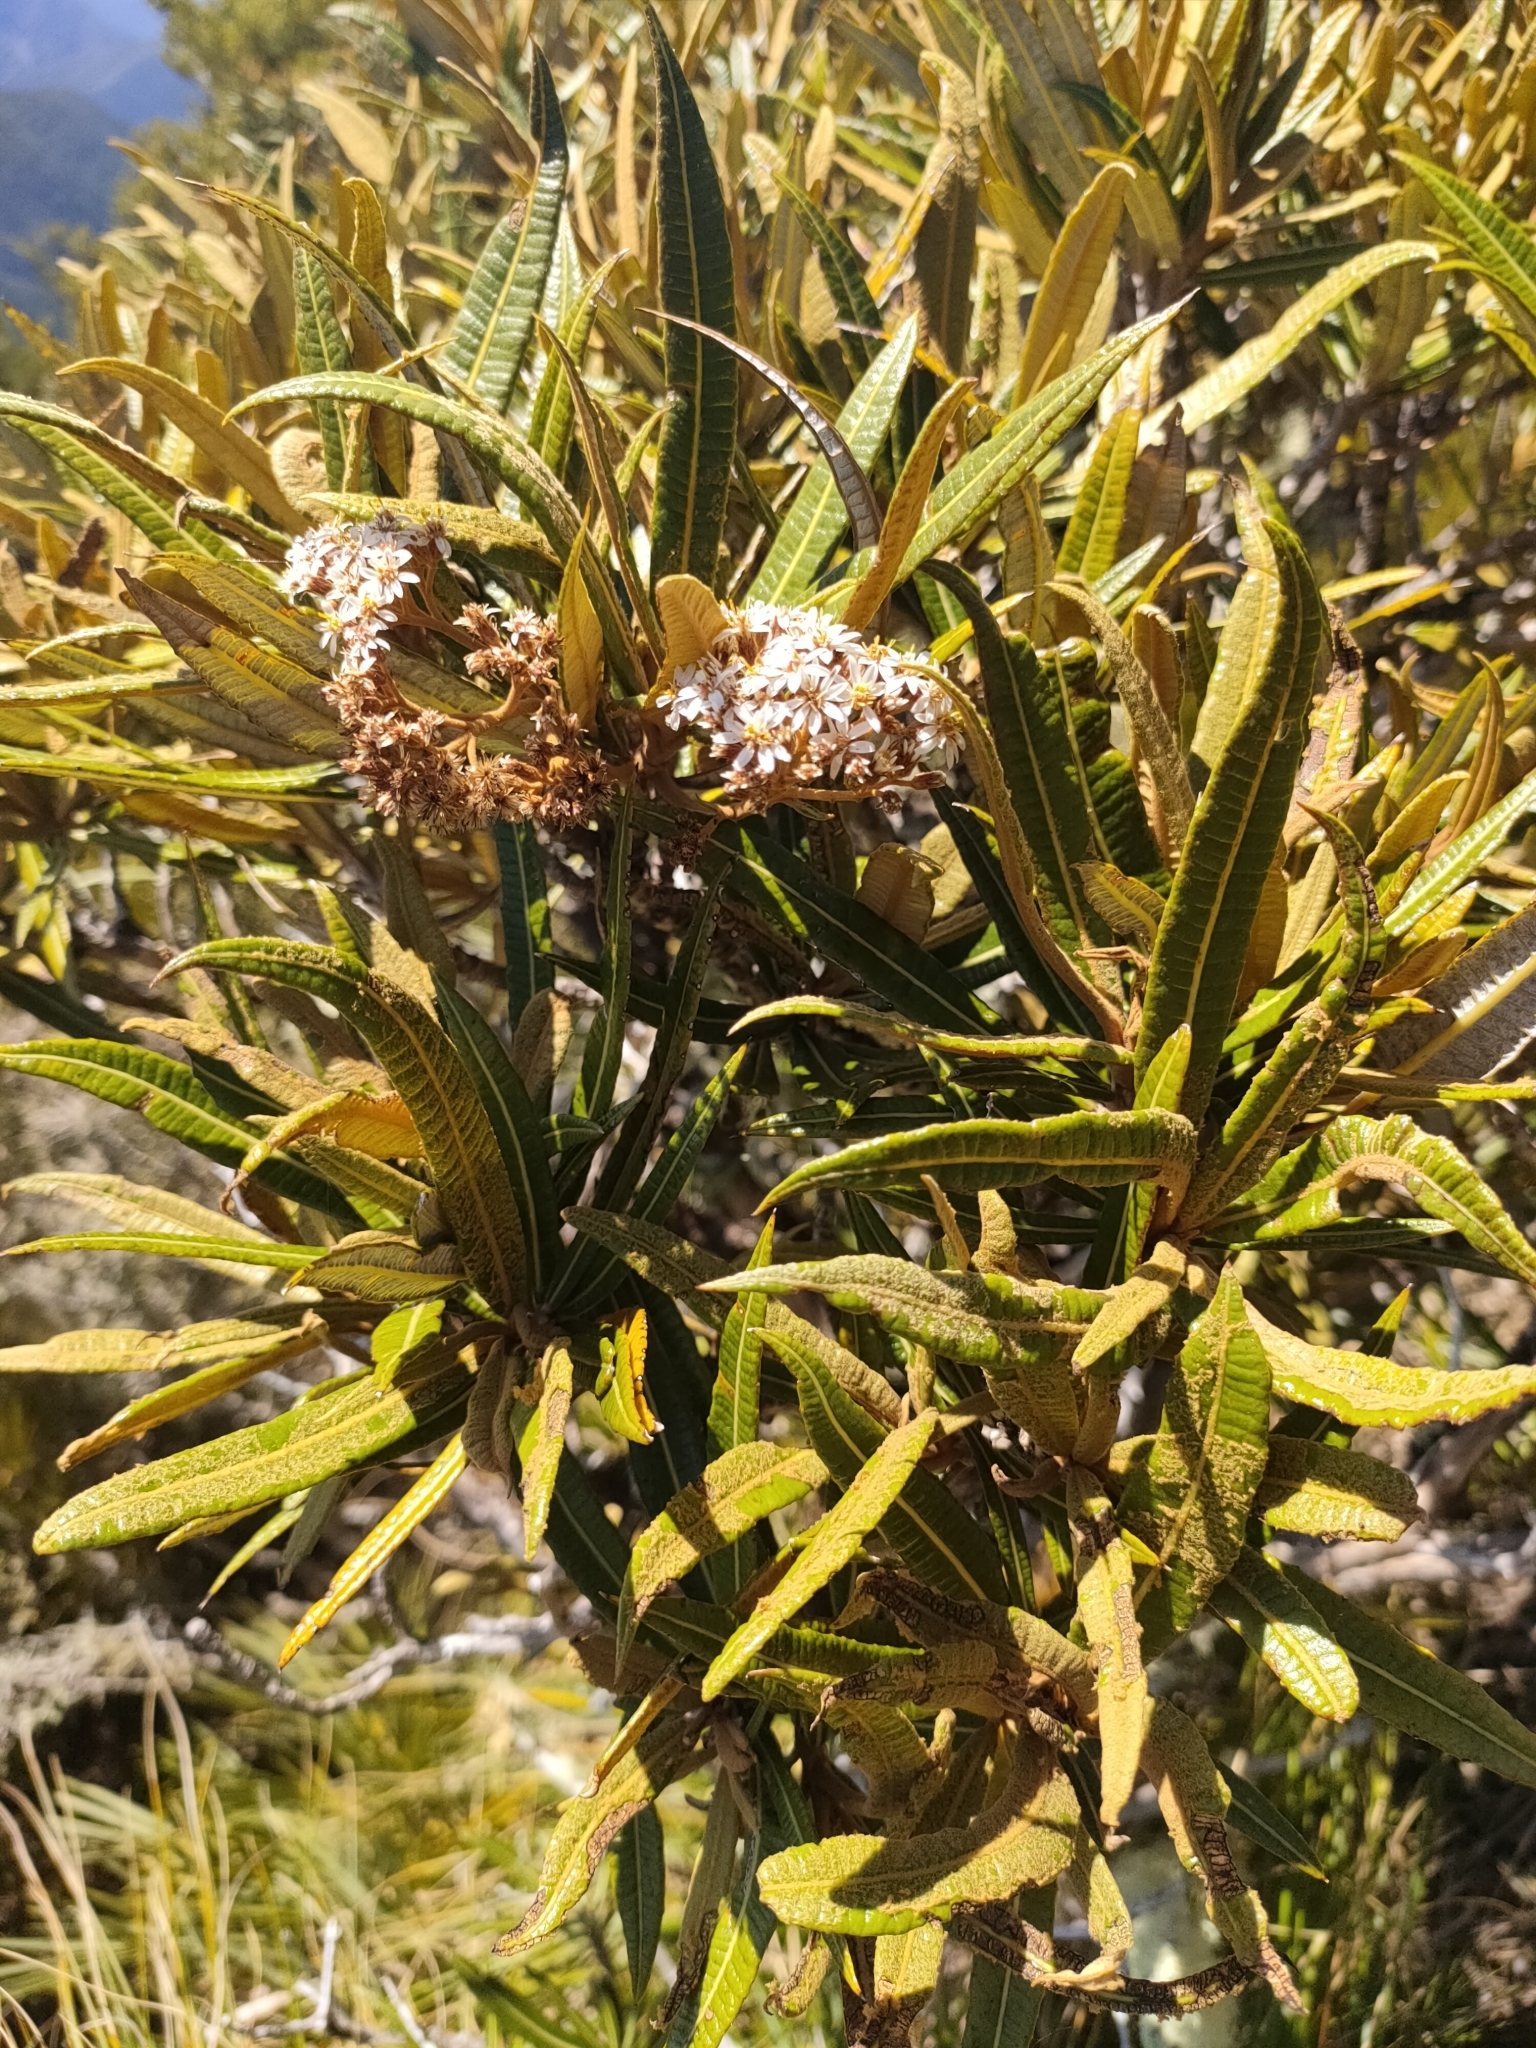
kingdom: Plantae
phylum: Tracheophyta
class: Magnoliopsida
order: Asterales
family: Asteraceae
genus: Olearia
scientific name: Olearia lacunosa
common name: Lancewood tree daisy
